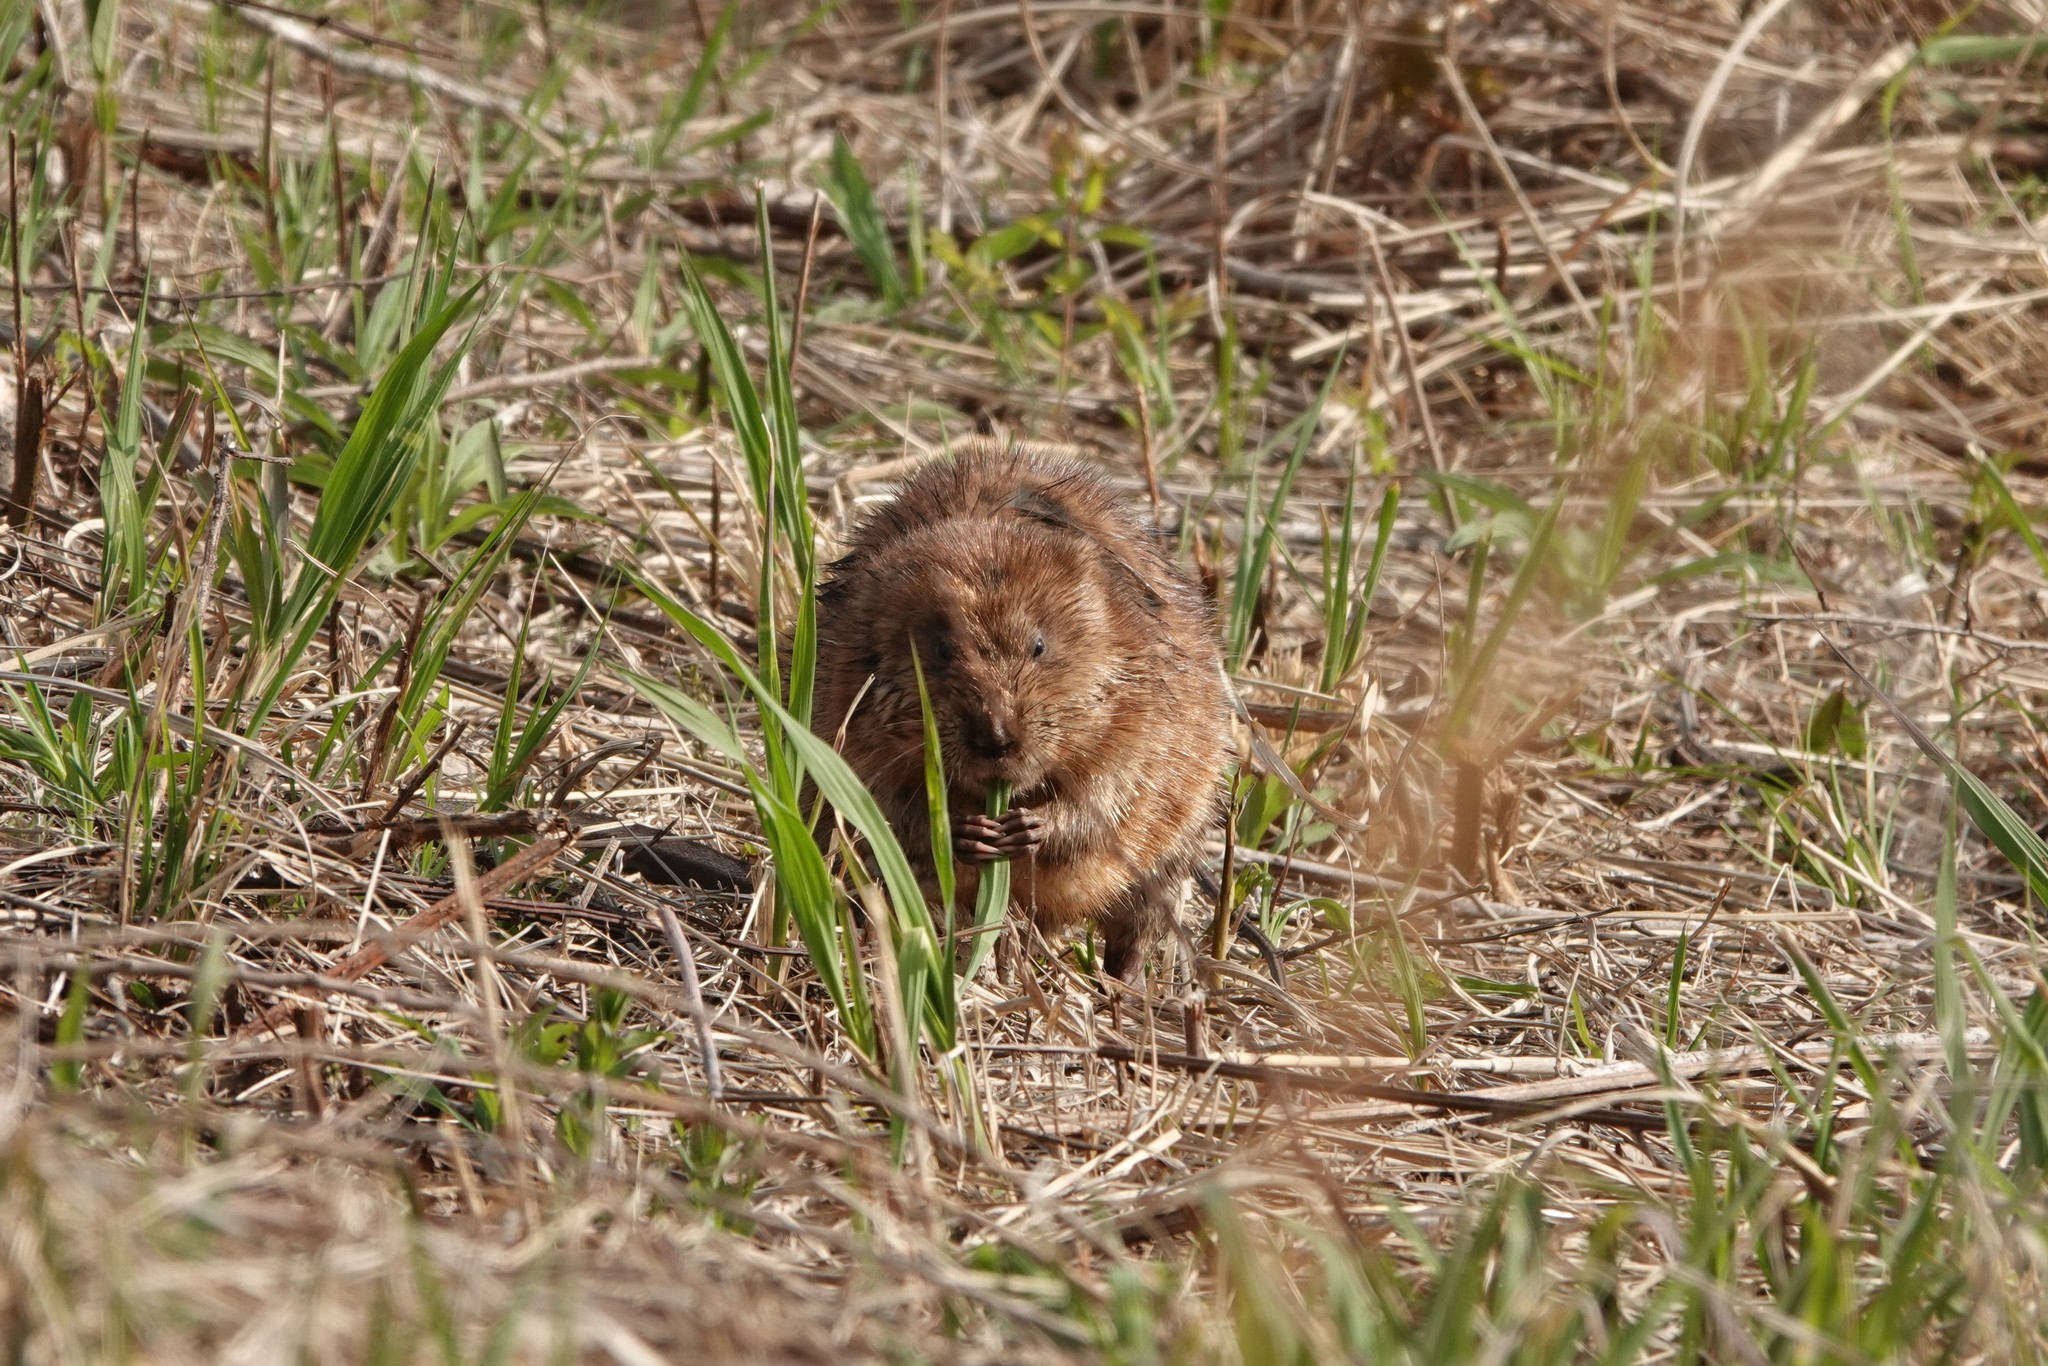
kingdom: Animalia
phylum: Chordata
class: Mammalia
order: Rodentia
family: Cricetidae
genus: Ondatra
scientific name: Ondatra zibethicus
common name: Muskrat
